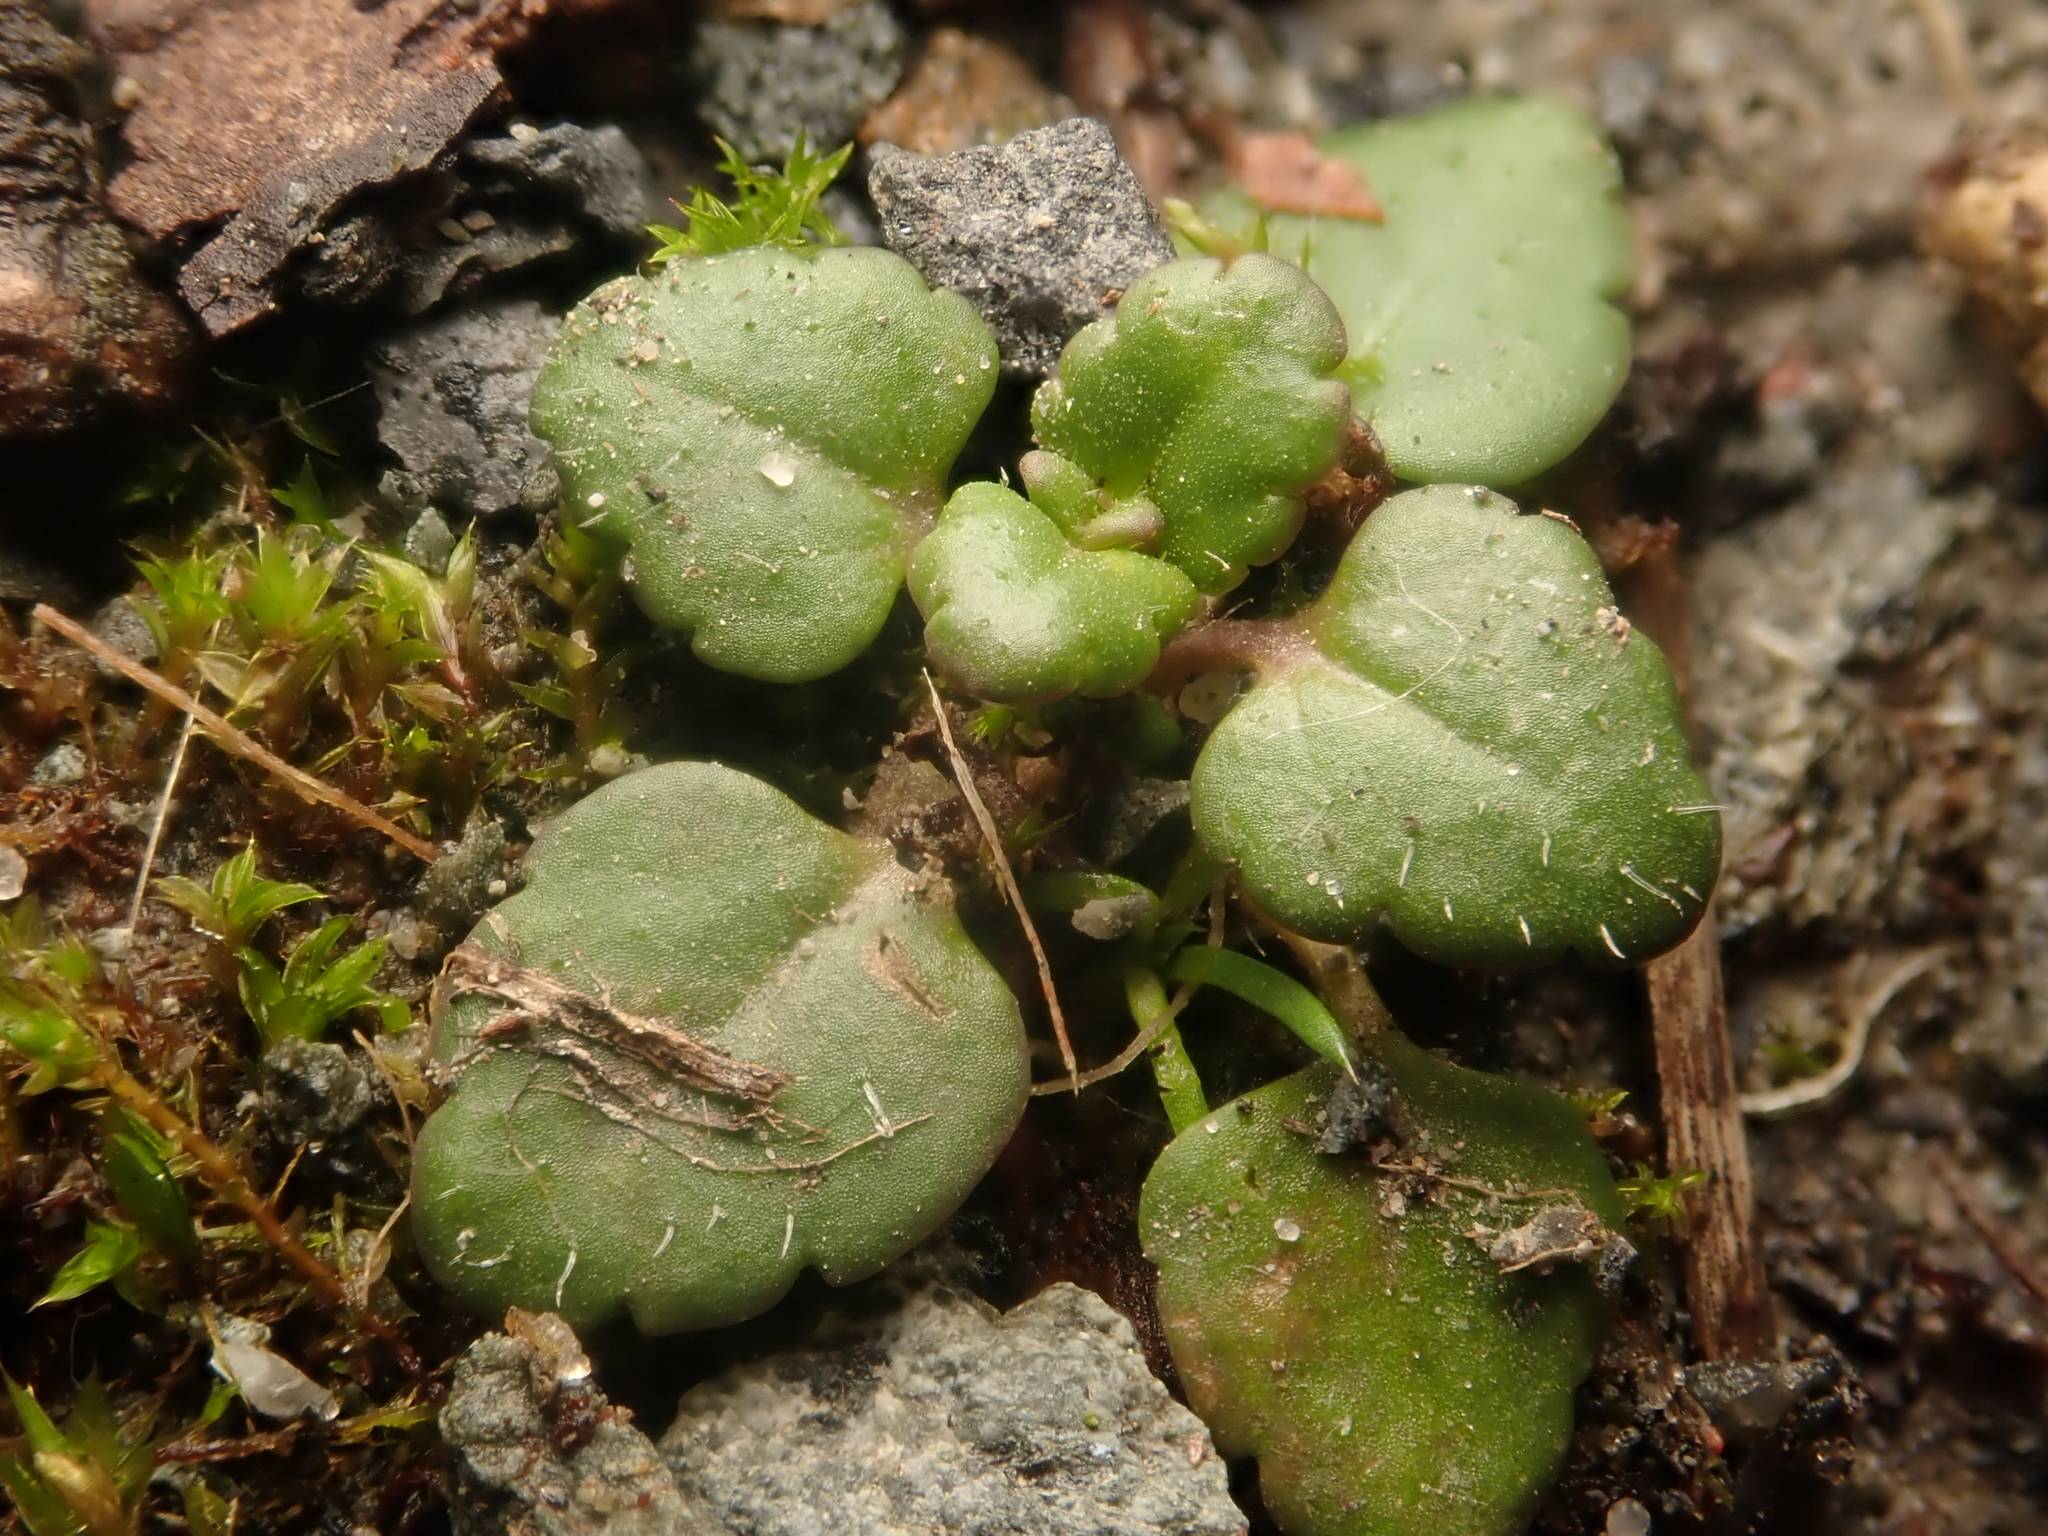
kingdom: Plantae
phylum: Tracheophyta
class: Magnoliopsida
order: Lamiales
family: Plantaginaceae
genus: Veronica
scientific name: Veronica arvensis
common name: Corn speedwell
